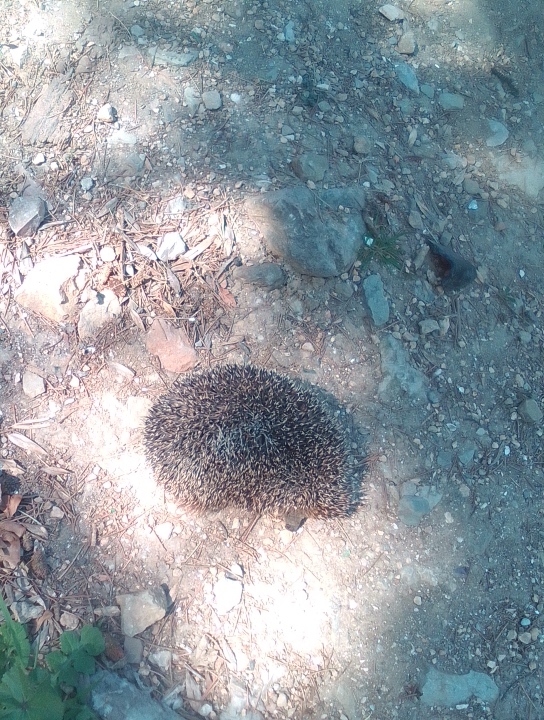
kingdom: Animalia
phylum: Chordata
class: Mammalia
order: Erinaceomorpha
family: Erinaceidae
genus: Erinaceus
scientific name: Erinaceus roumanicus
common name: Northern white-breasted hedgehog
